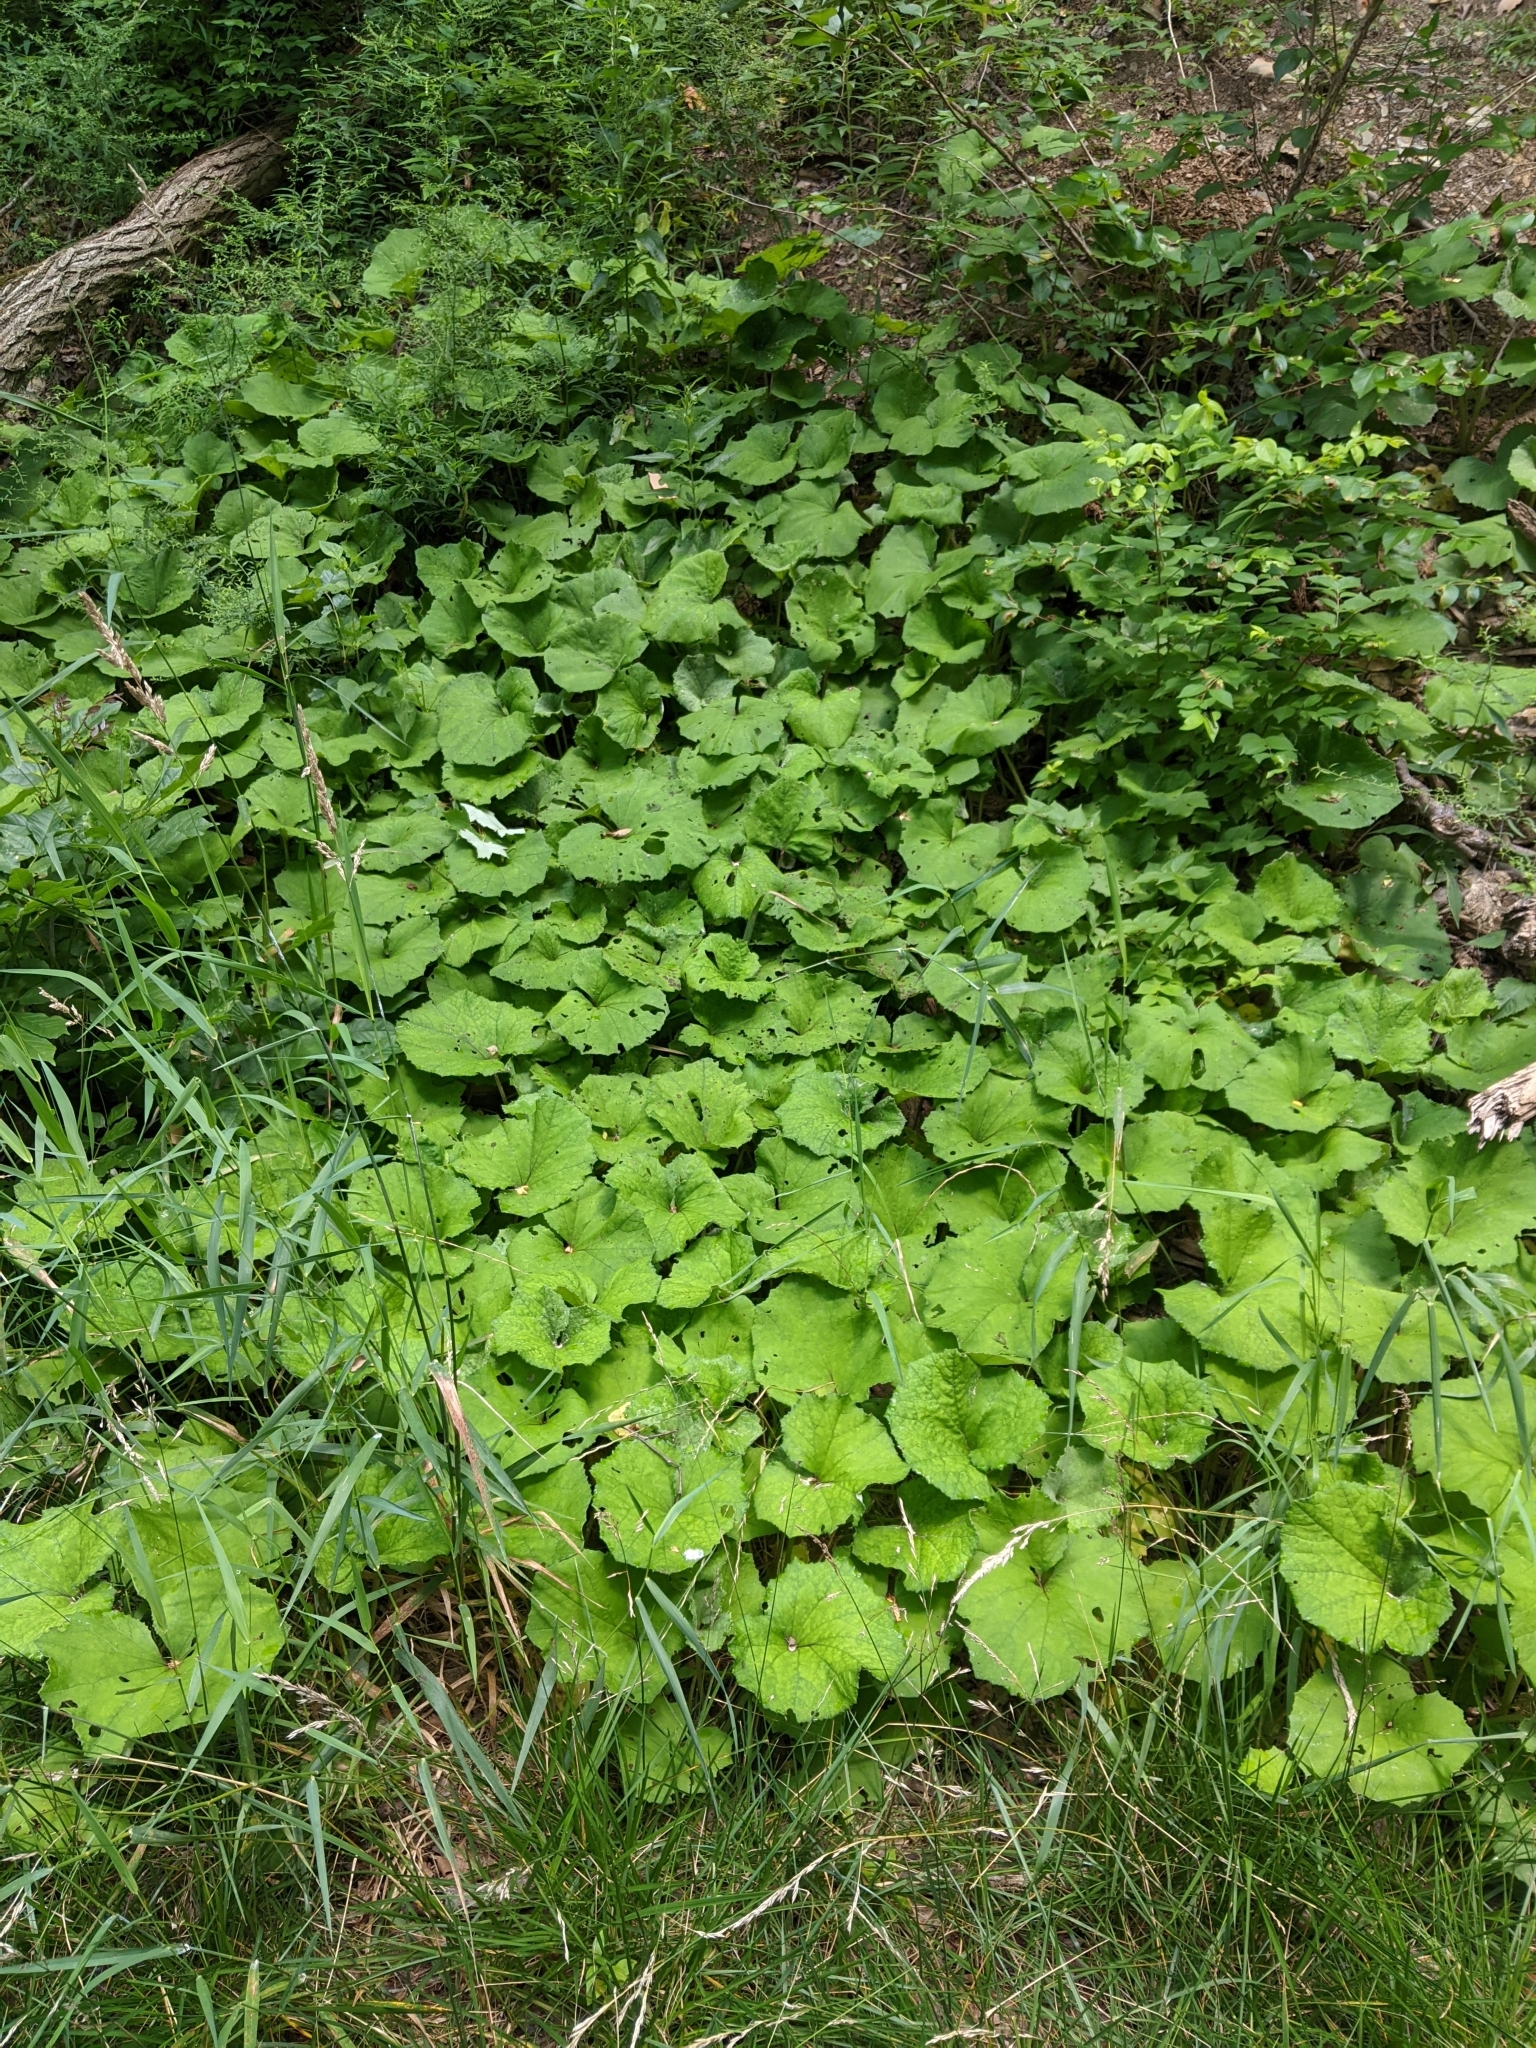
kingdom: Plantae
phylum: Tracheophyta
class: Magnoliopsida
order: Asterales
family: Asteraceae
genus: Tussilago
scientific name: Tussilago farfara
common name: Coltsfoot
